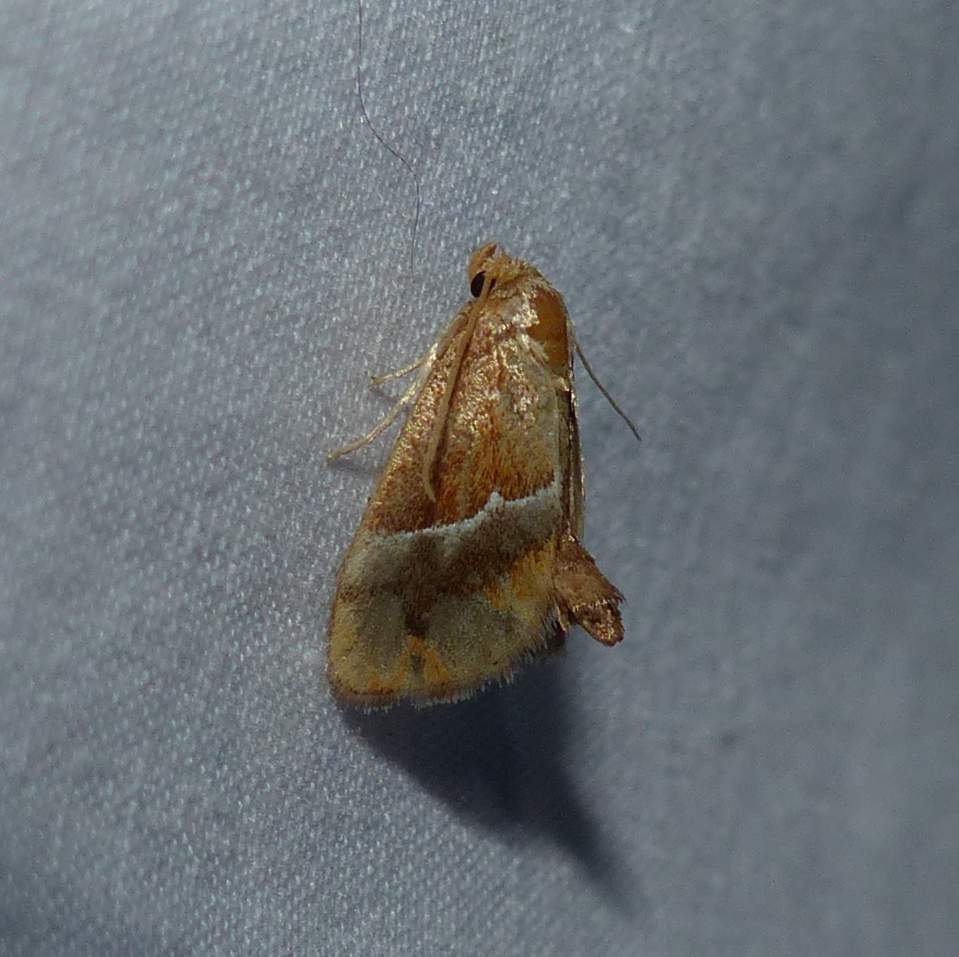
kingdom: Animalia
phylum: Arthropoda
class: Insecta
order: Lepidoptera
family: Limacodidae
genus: Lithacodes
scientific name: Lithacodes fasciola
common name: Yellow-shouldered slug moth
